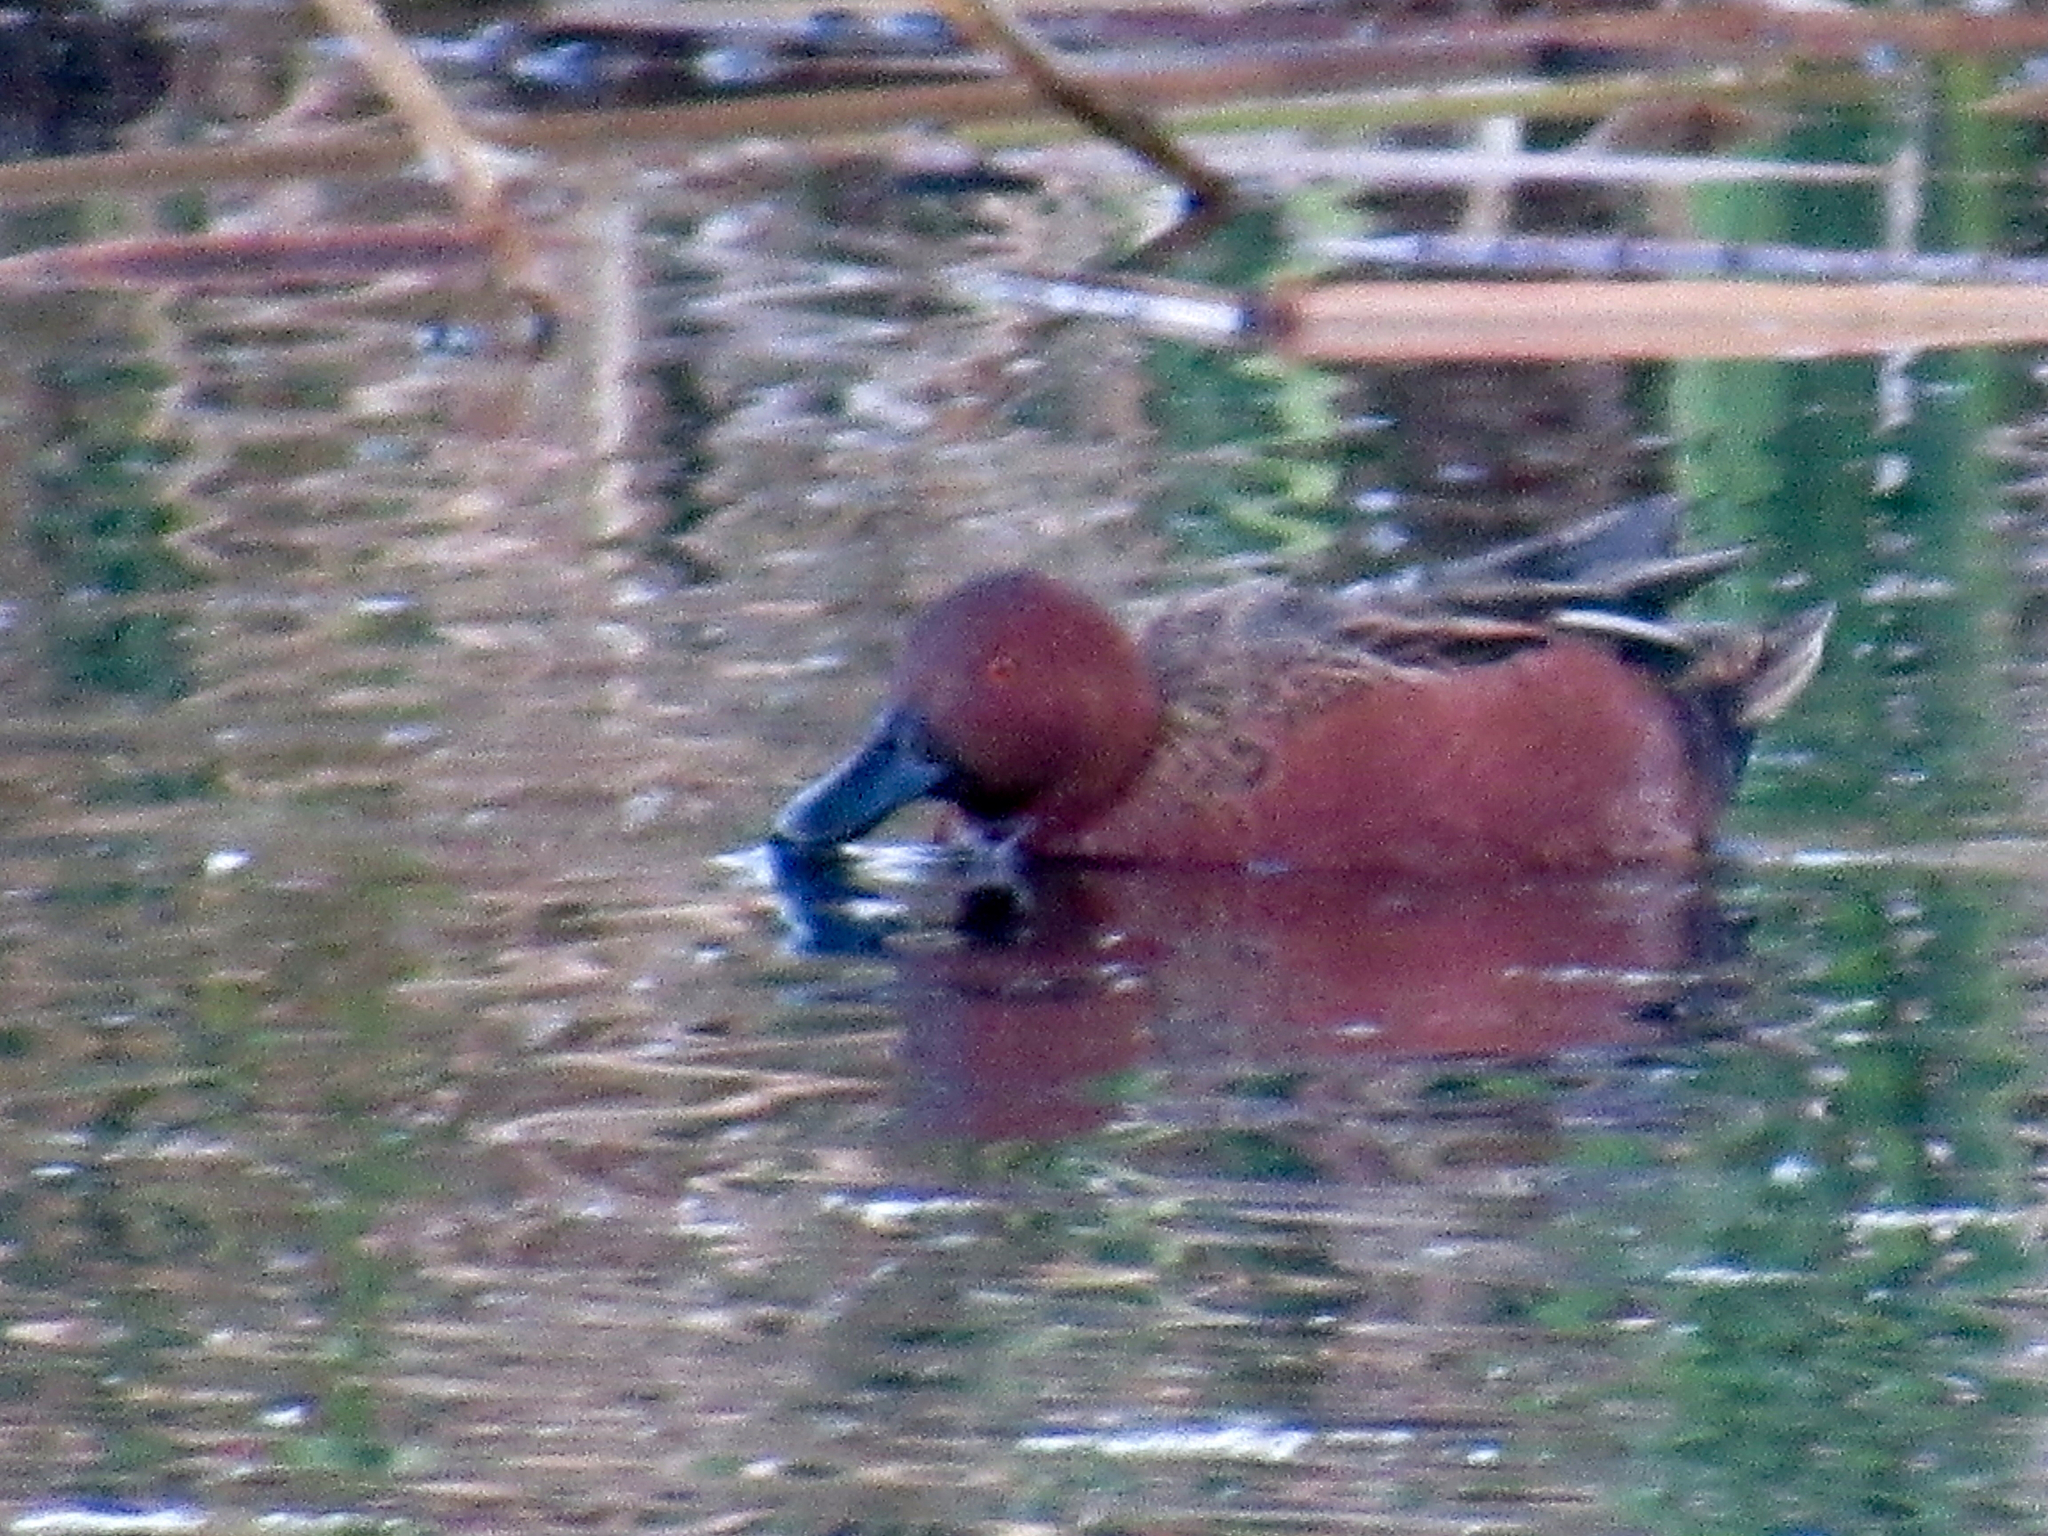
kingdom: Animalia
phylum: Chordata
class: Aves
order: Anseriformes
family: Anatidae
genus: Spatula
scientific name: Spatula cyanoptera
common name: Cinnamon teal
